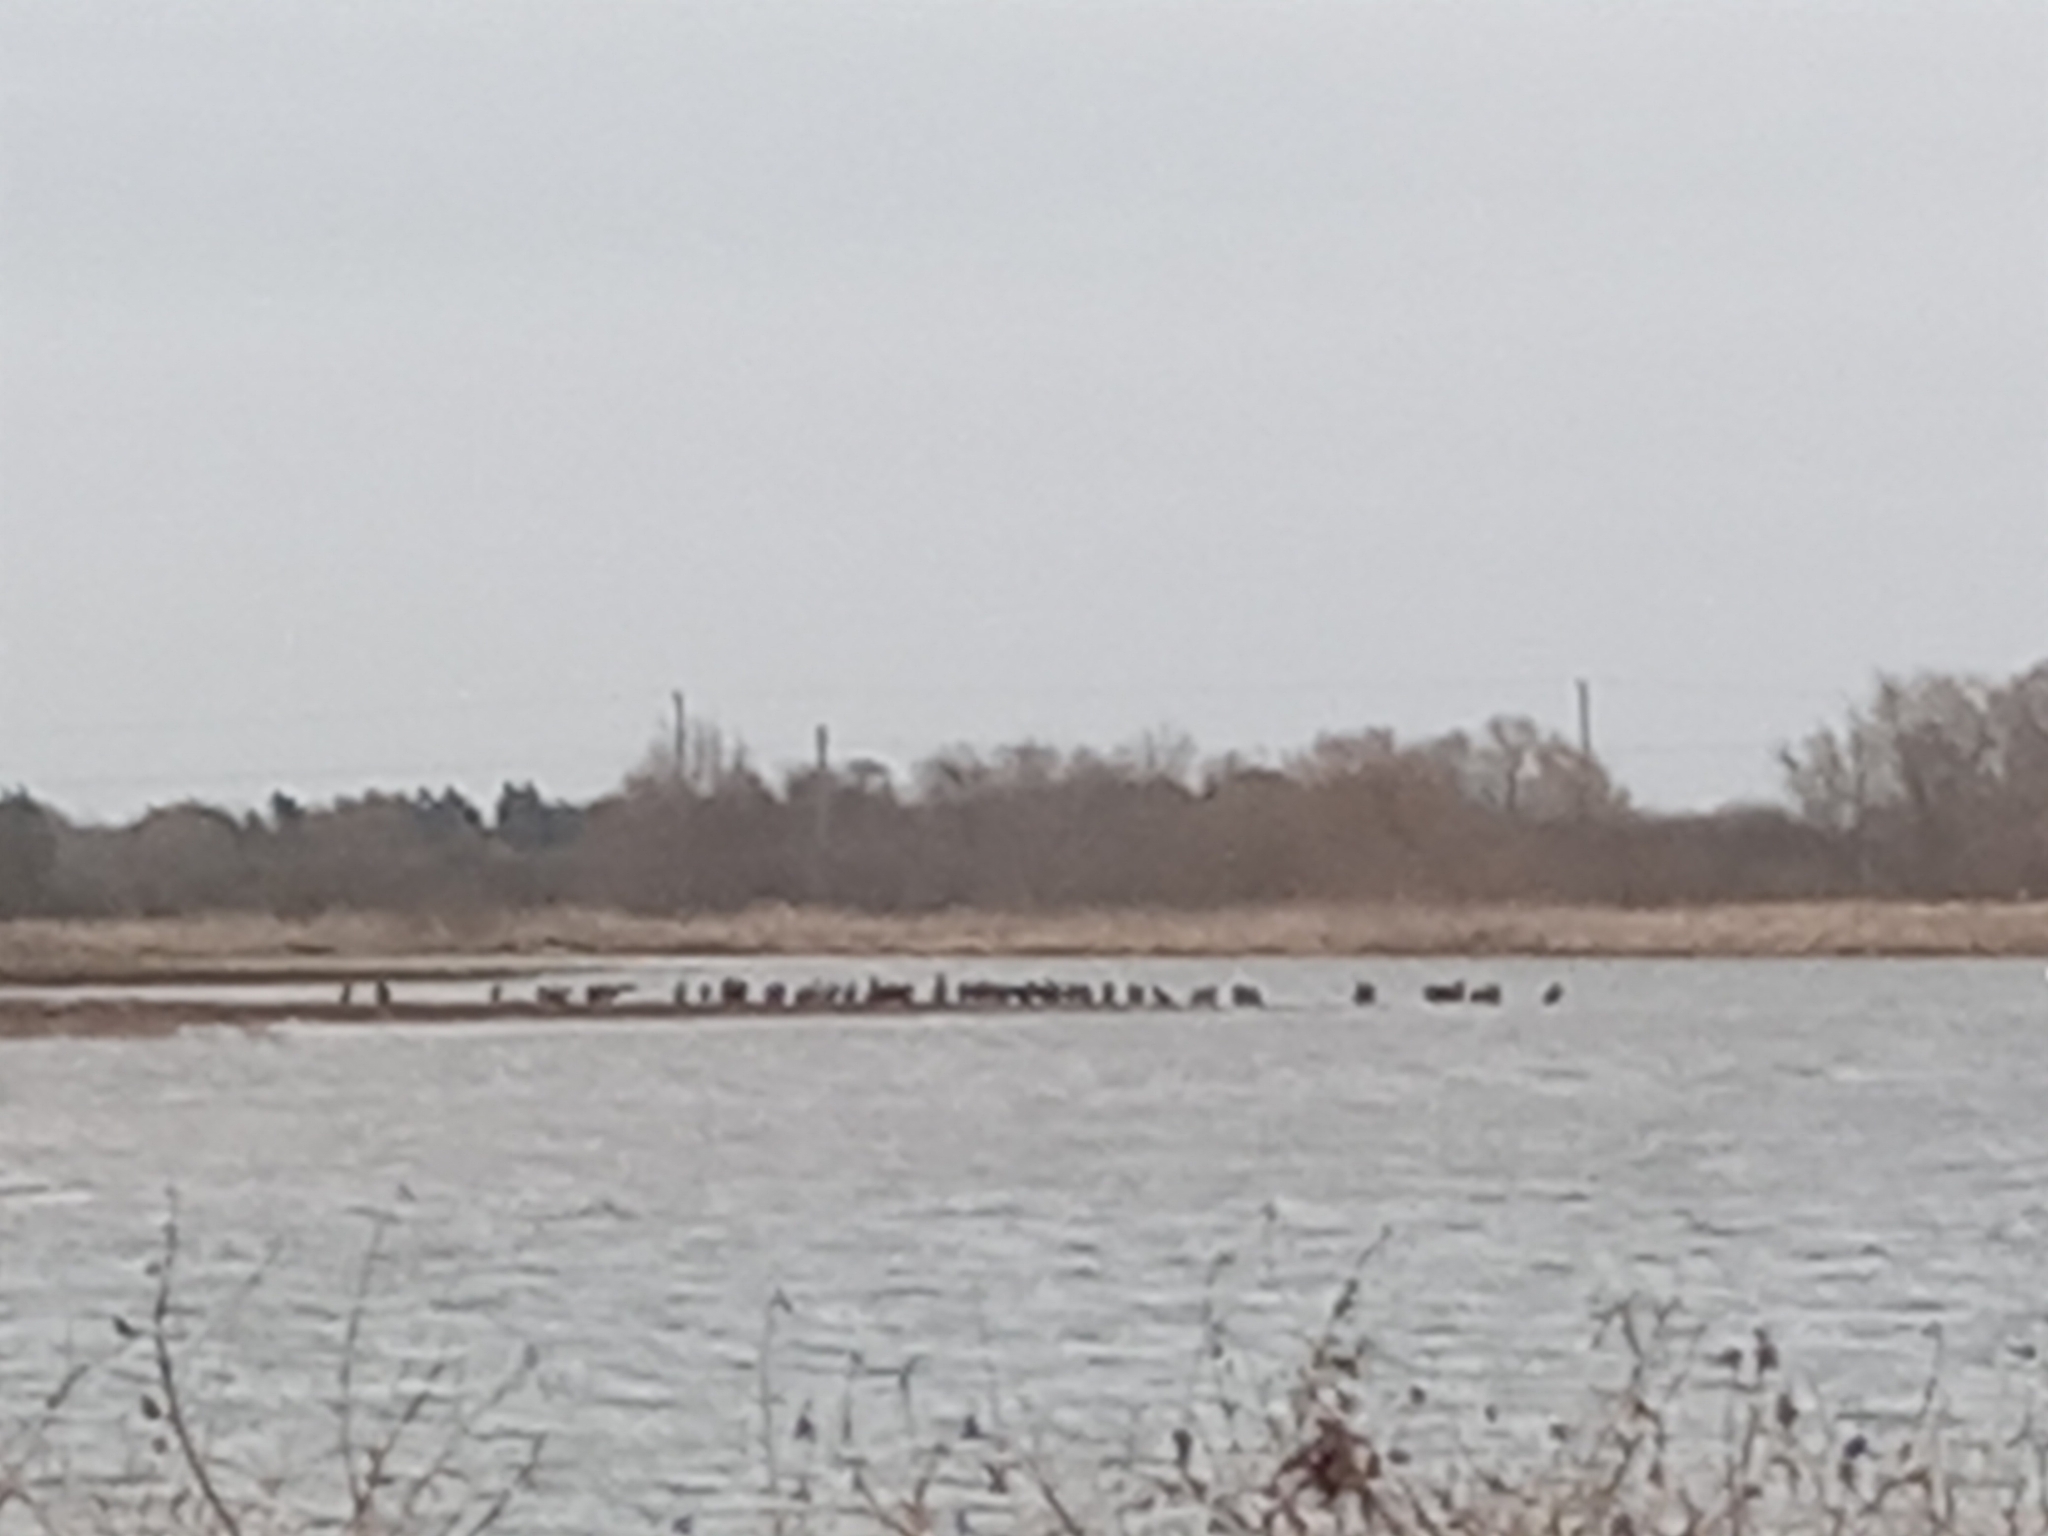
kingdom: Animalia
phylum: Chordata
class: Aves
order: Suliformes
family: Phalacrocoracidae
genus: Phalacrocorax
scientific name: Phalacrocorax carbo
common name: Great cormorant
